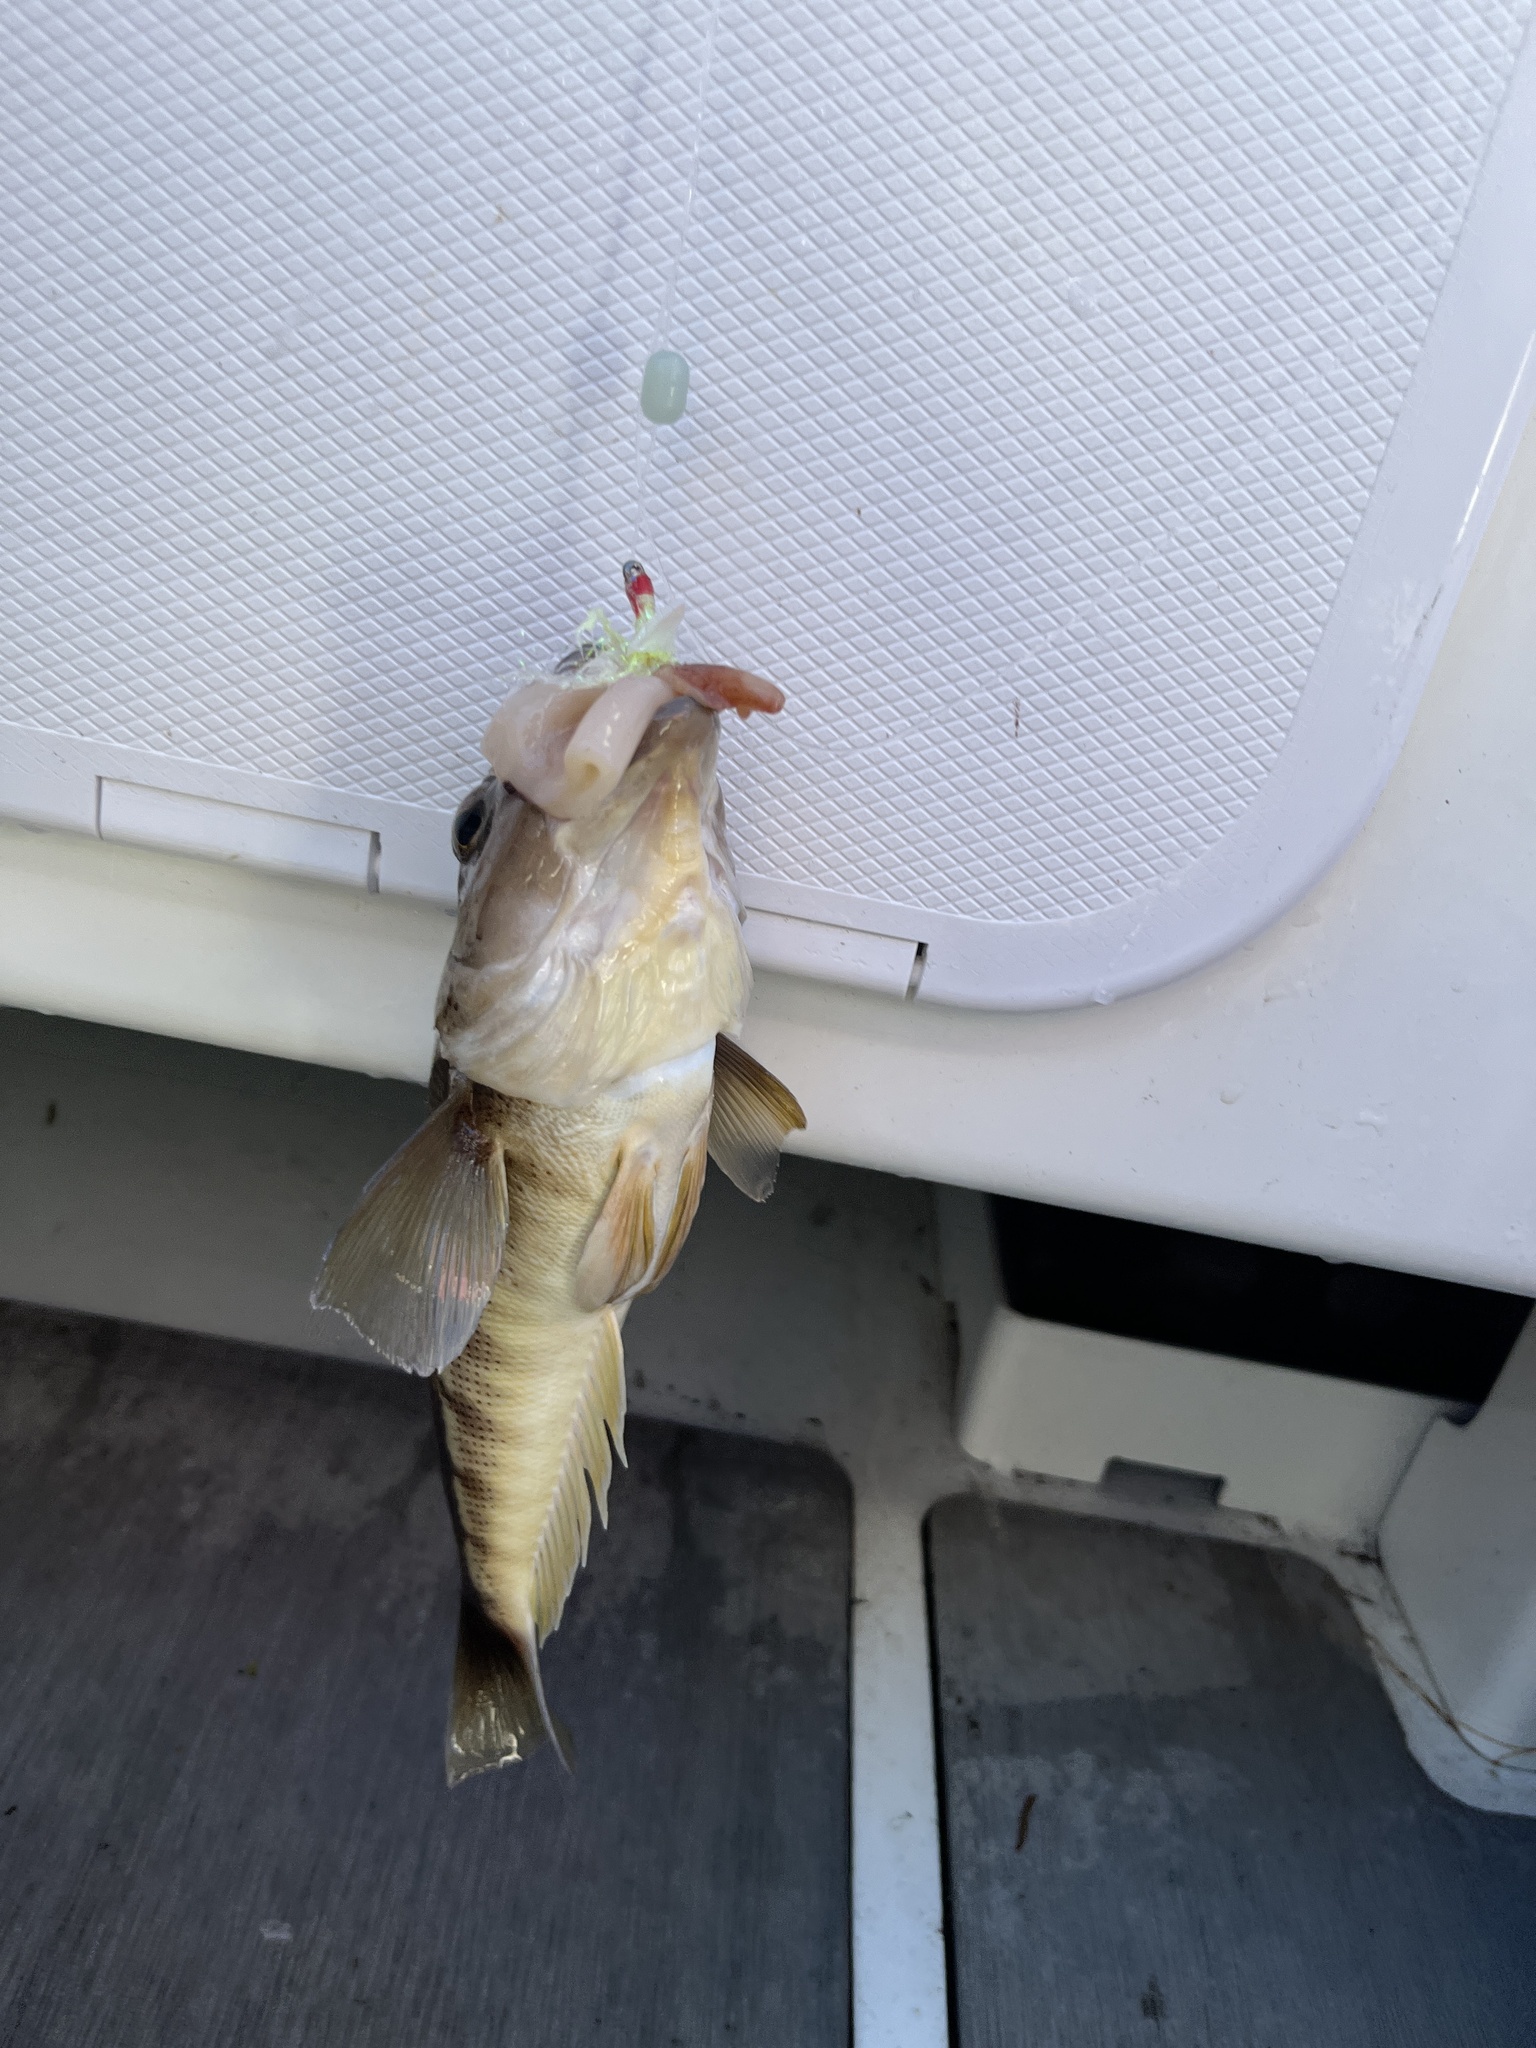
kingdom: Animalia
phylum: Chordata
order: Perciformes
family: Pinguipedidae
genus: Parapercis
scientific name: Parapercis colias
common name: Blue cod
